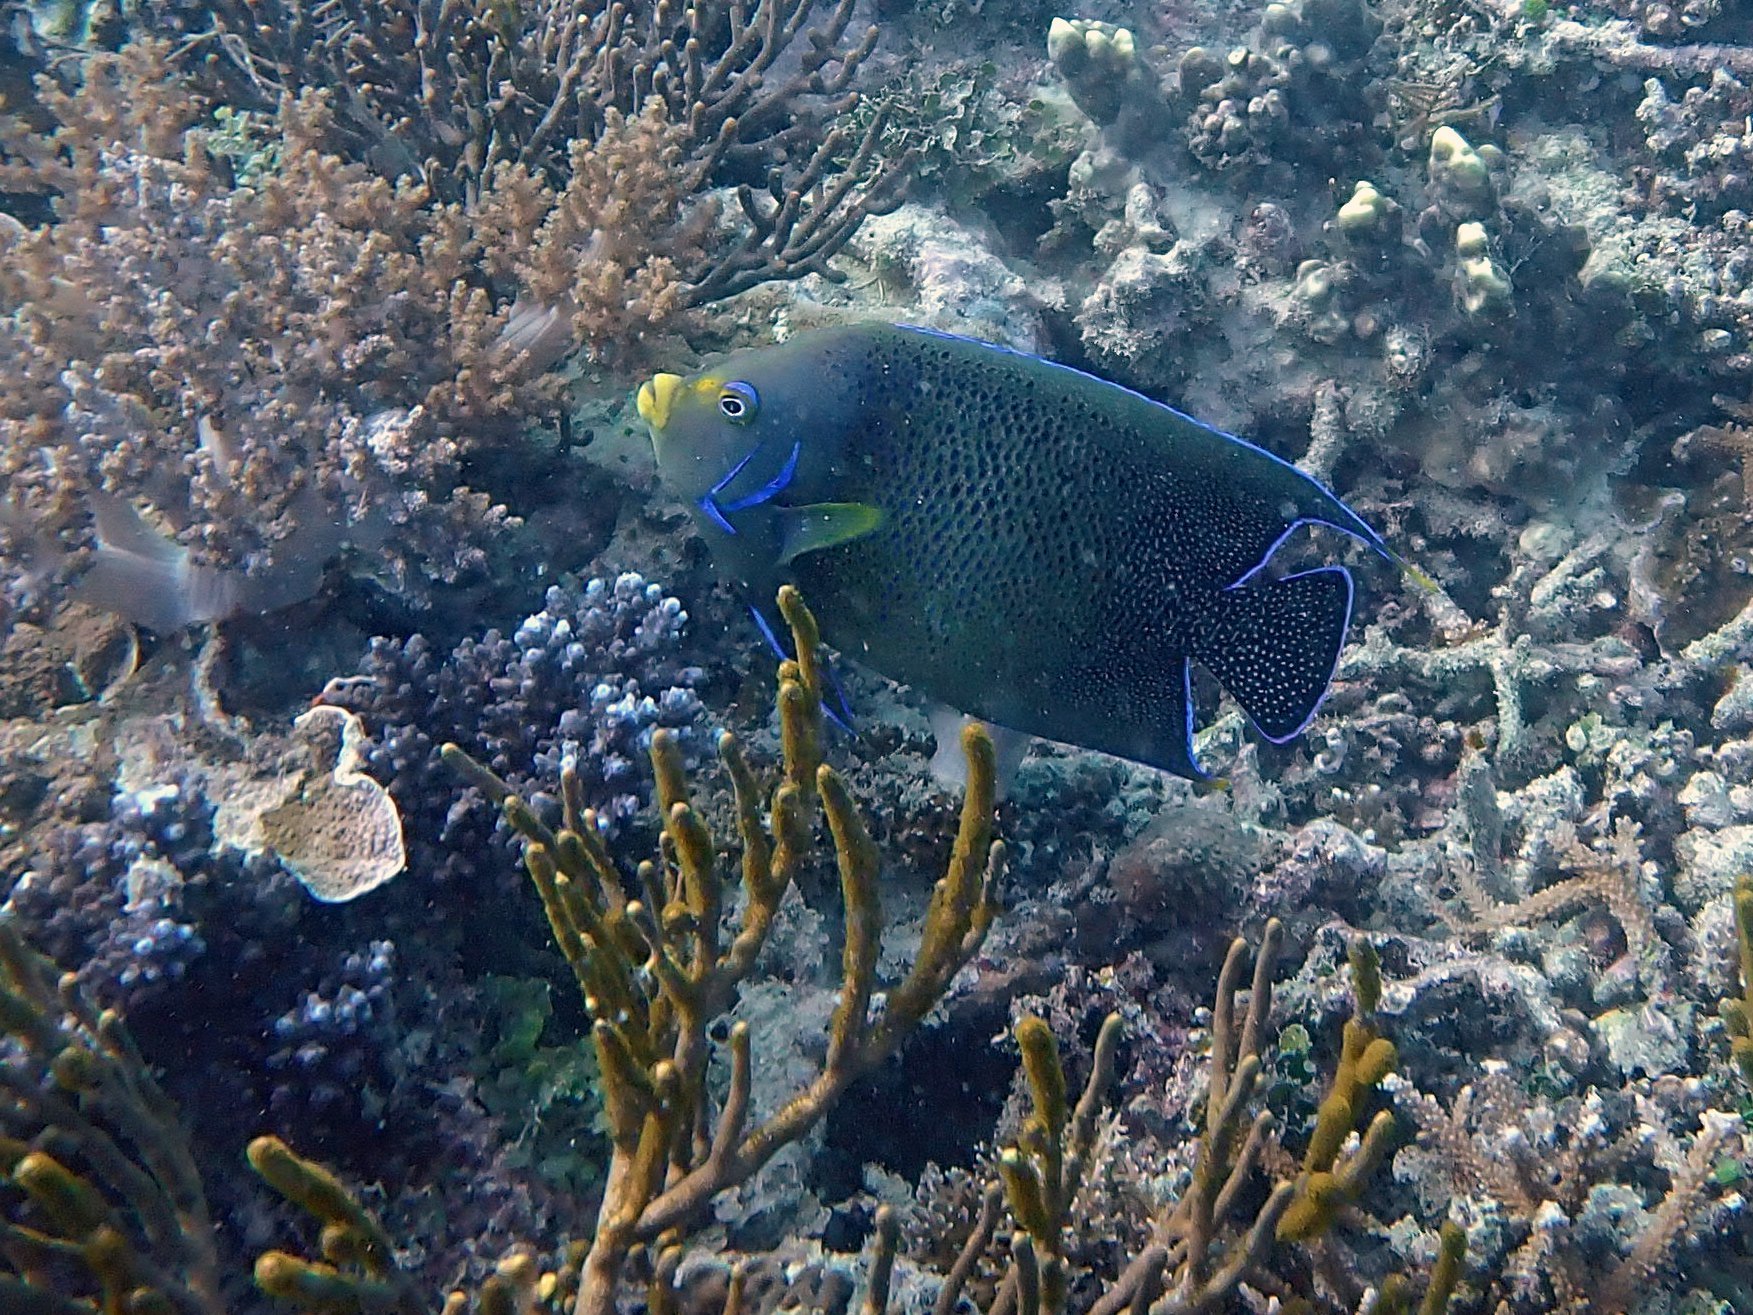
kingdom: Animalia
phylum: Chordata
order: Perciformes
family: Pomacanthidae
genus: Pomacanthus
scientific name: Pomacanthus semicirculatus
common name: Semicircle angelfish
